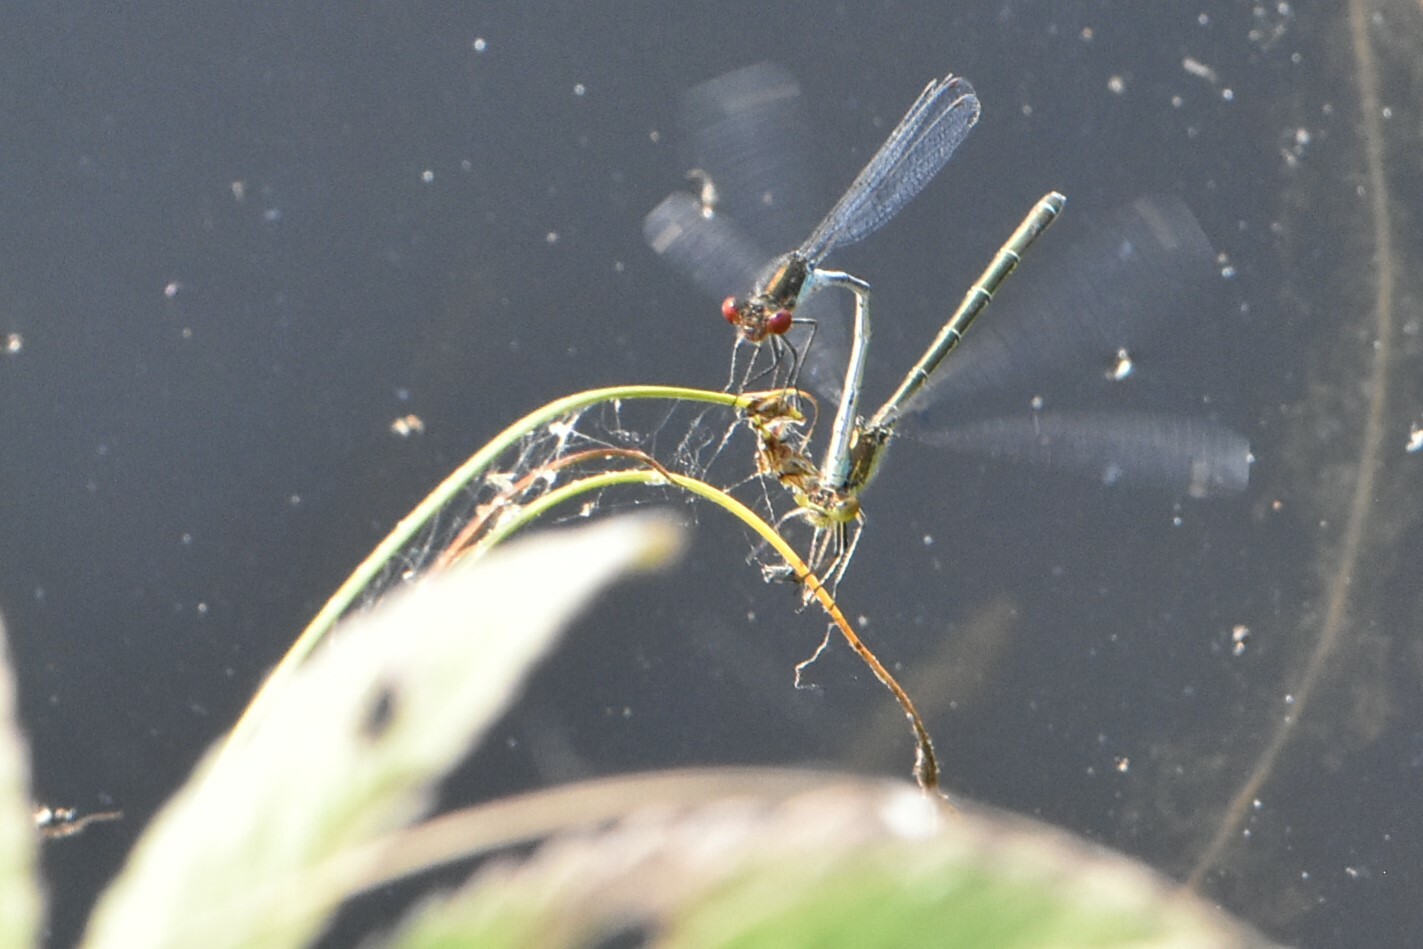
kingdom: Animalia
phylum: Arthropoda
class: Insecta
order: Odonata
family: Coenagrionidae
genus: Erythromma
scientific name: Erythromma najas
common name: Red-eyed damselfly
